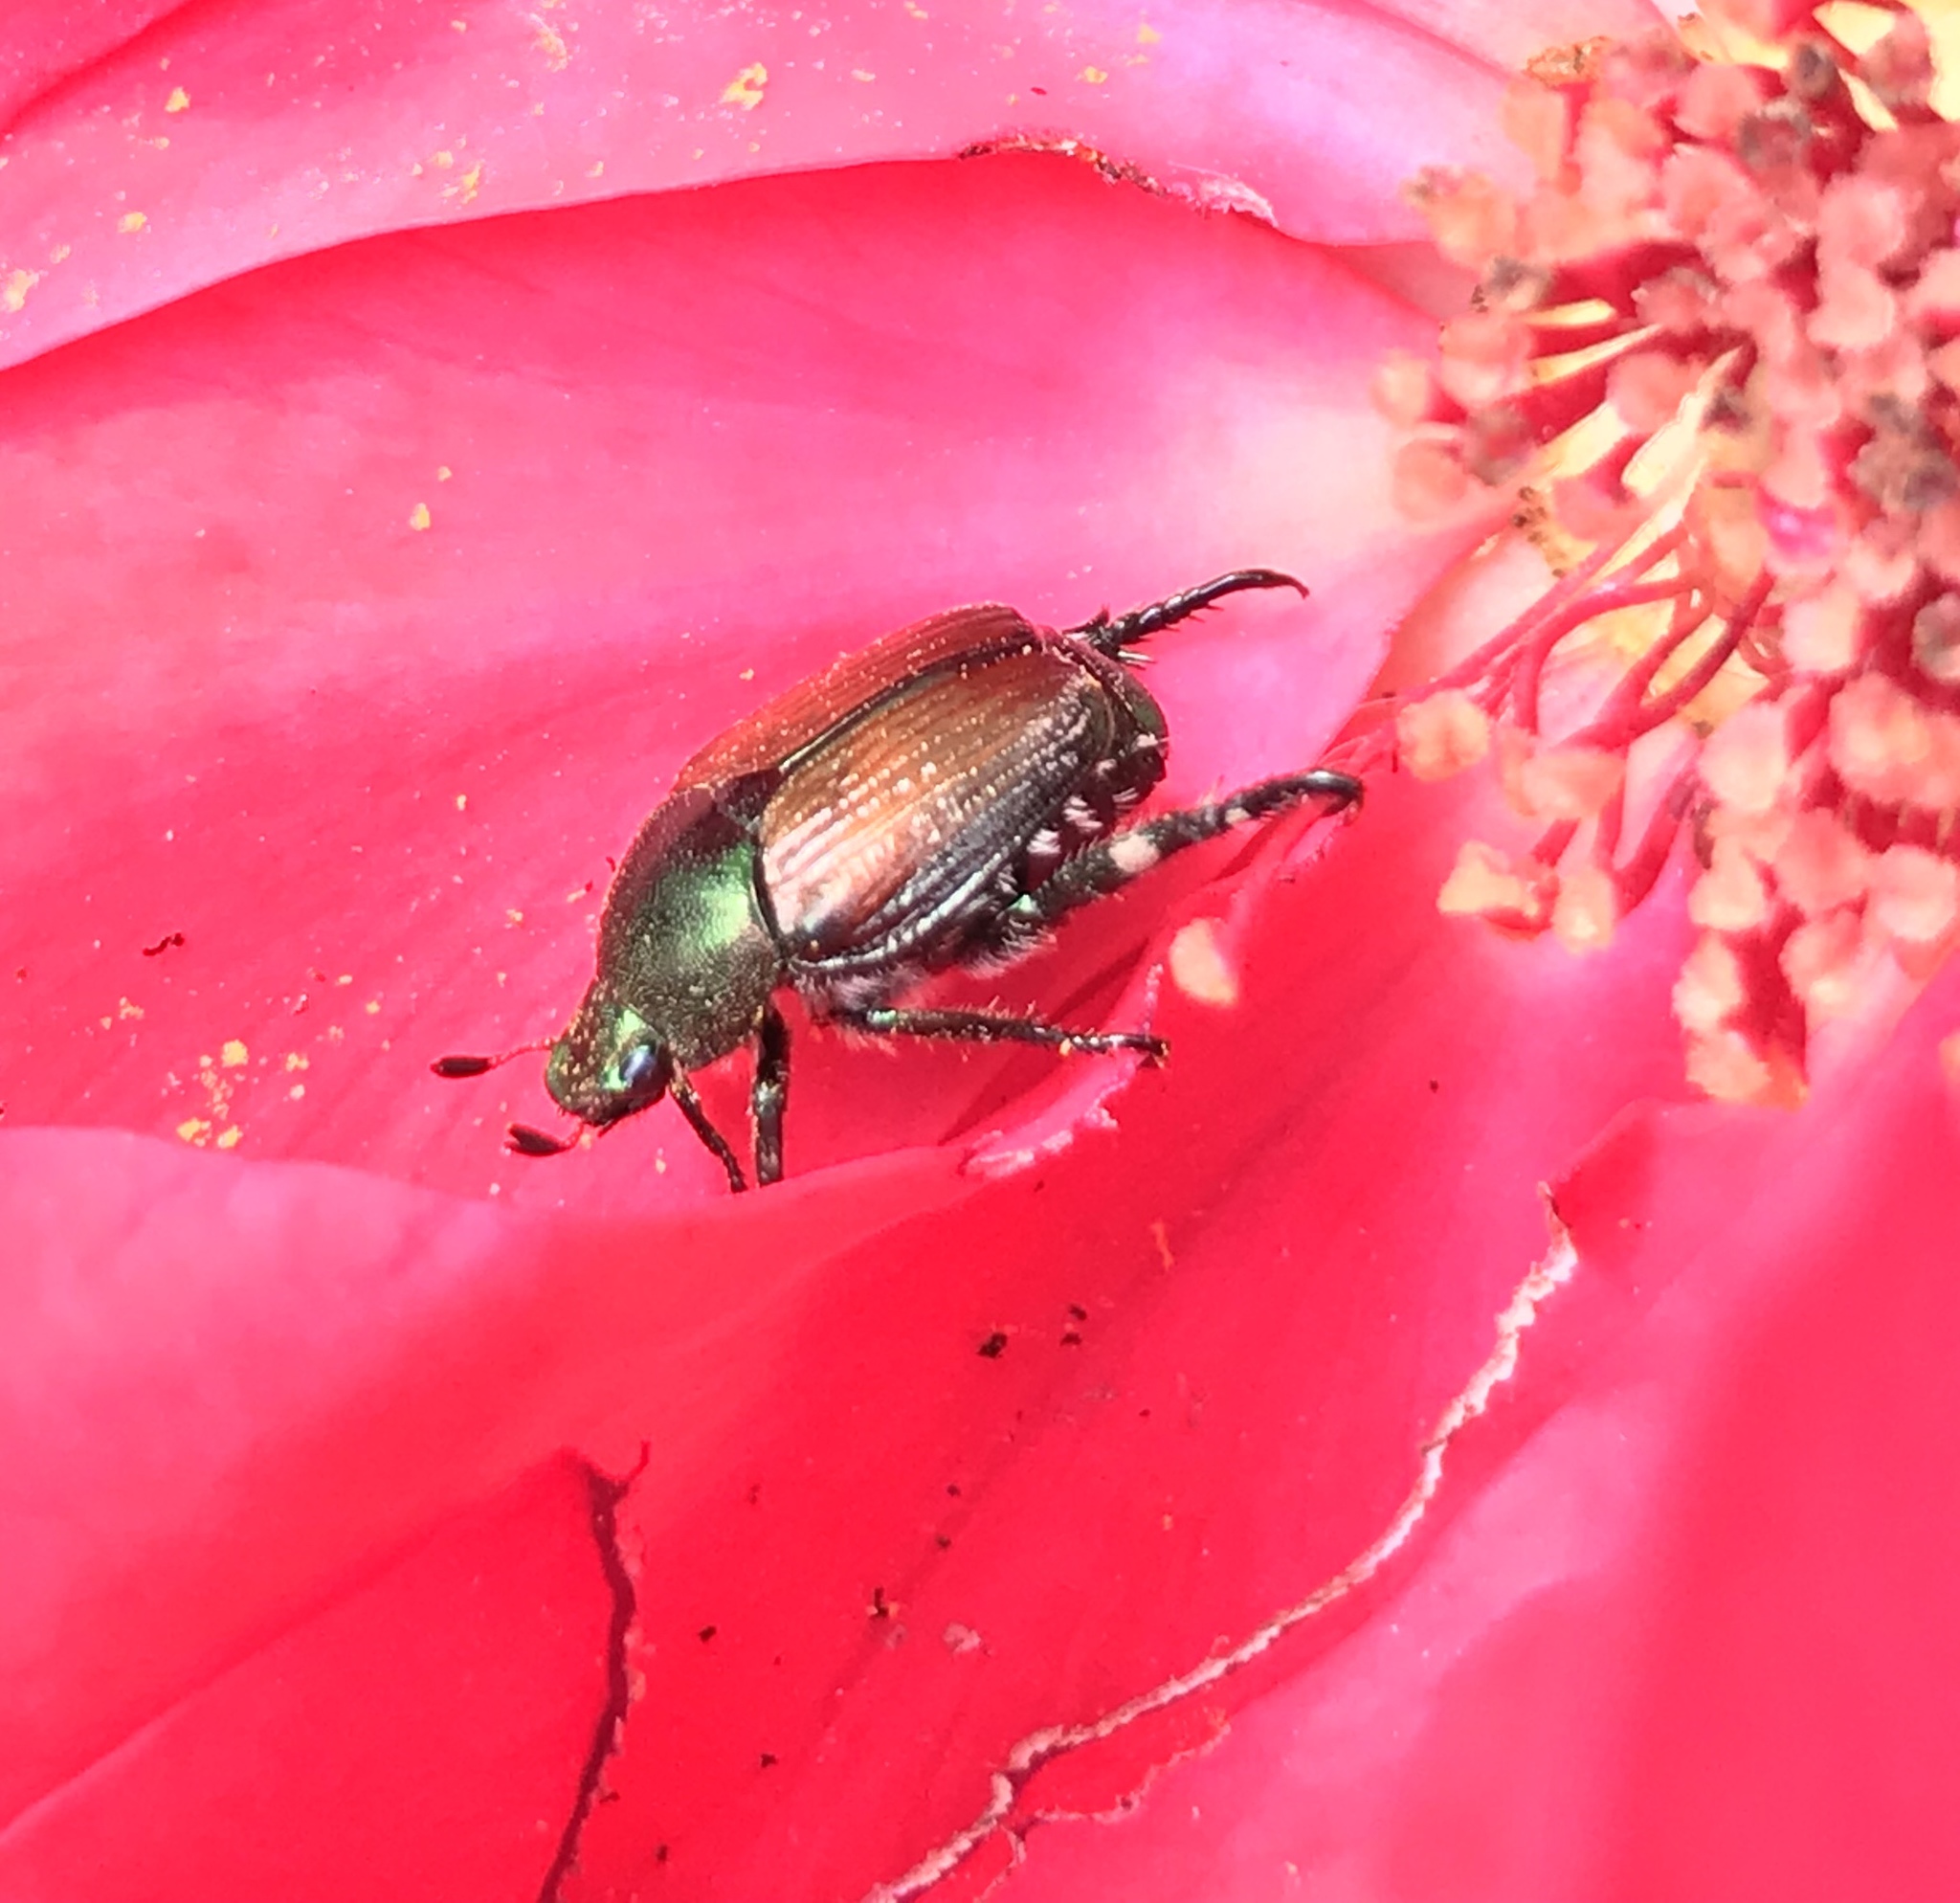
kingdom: Animalia
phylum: Arthropoda
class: Insecta
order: Coleoptera
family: Scarabaeidae
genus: Popillia
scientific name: Popillia japonica
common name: Japanese beetle
